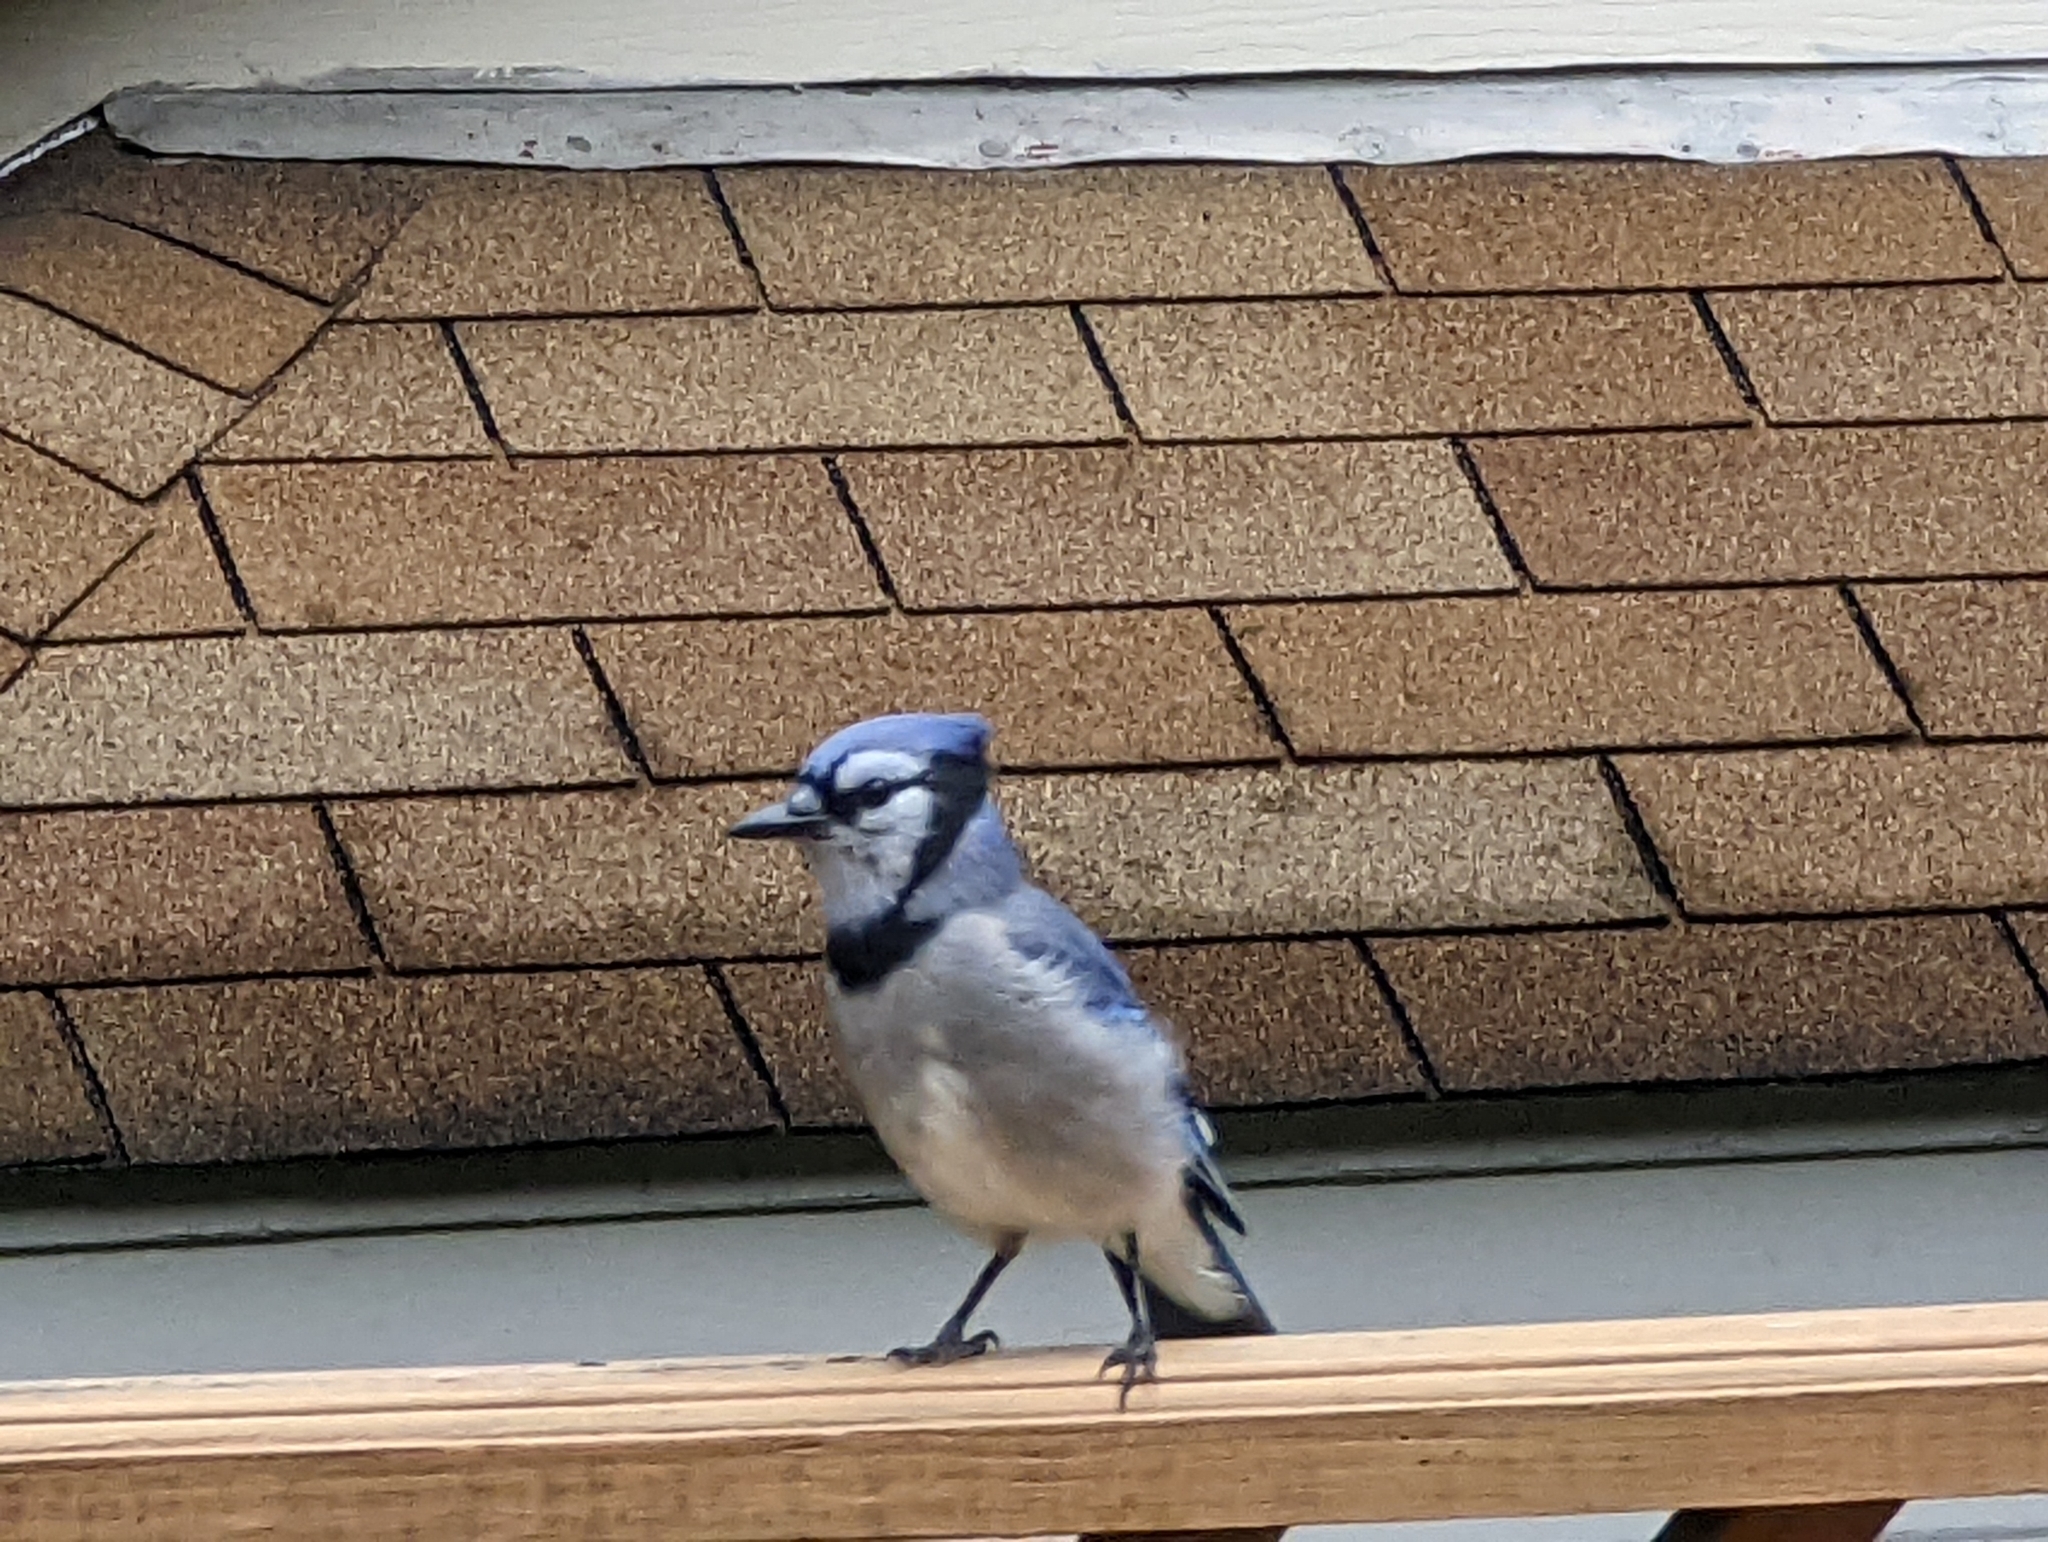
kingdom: Animalia
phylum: Chordata
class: Aves
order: Passeriformes
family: Corvidae
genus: Cyanocitta
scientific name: Cyanocitta cristata
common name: Blue jay
